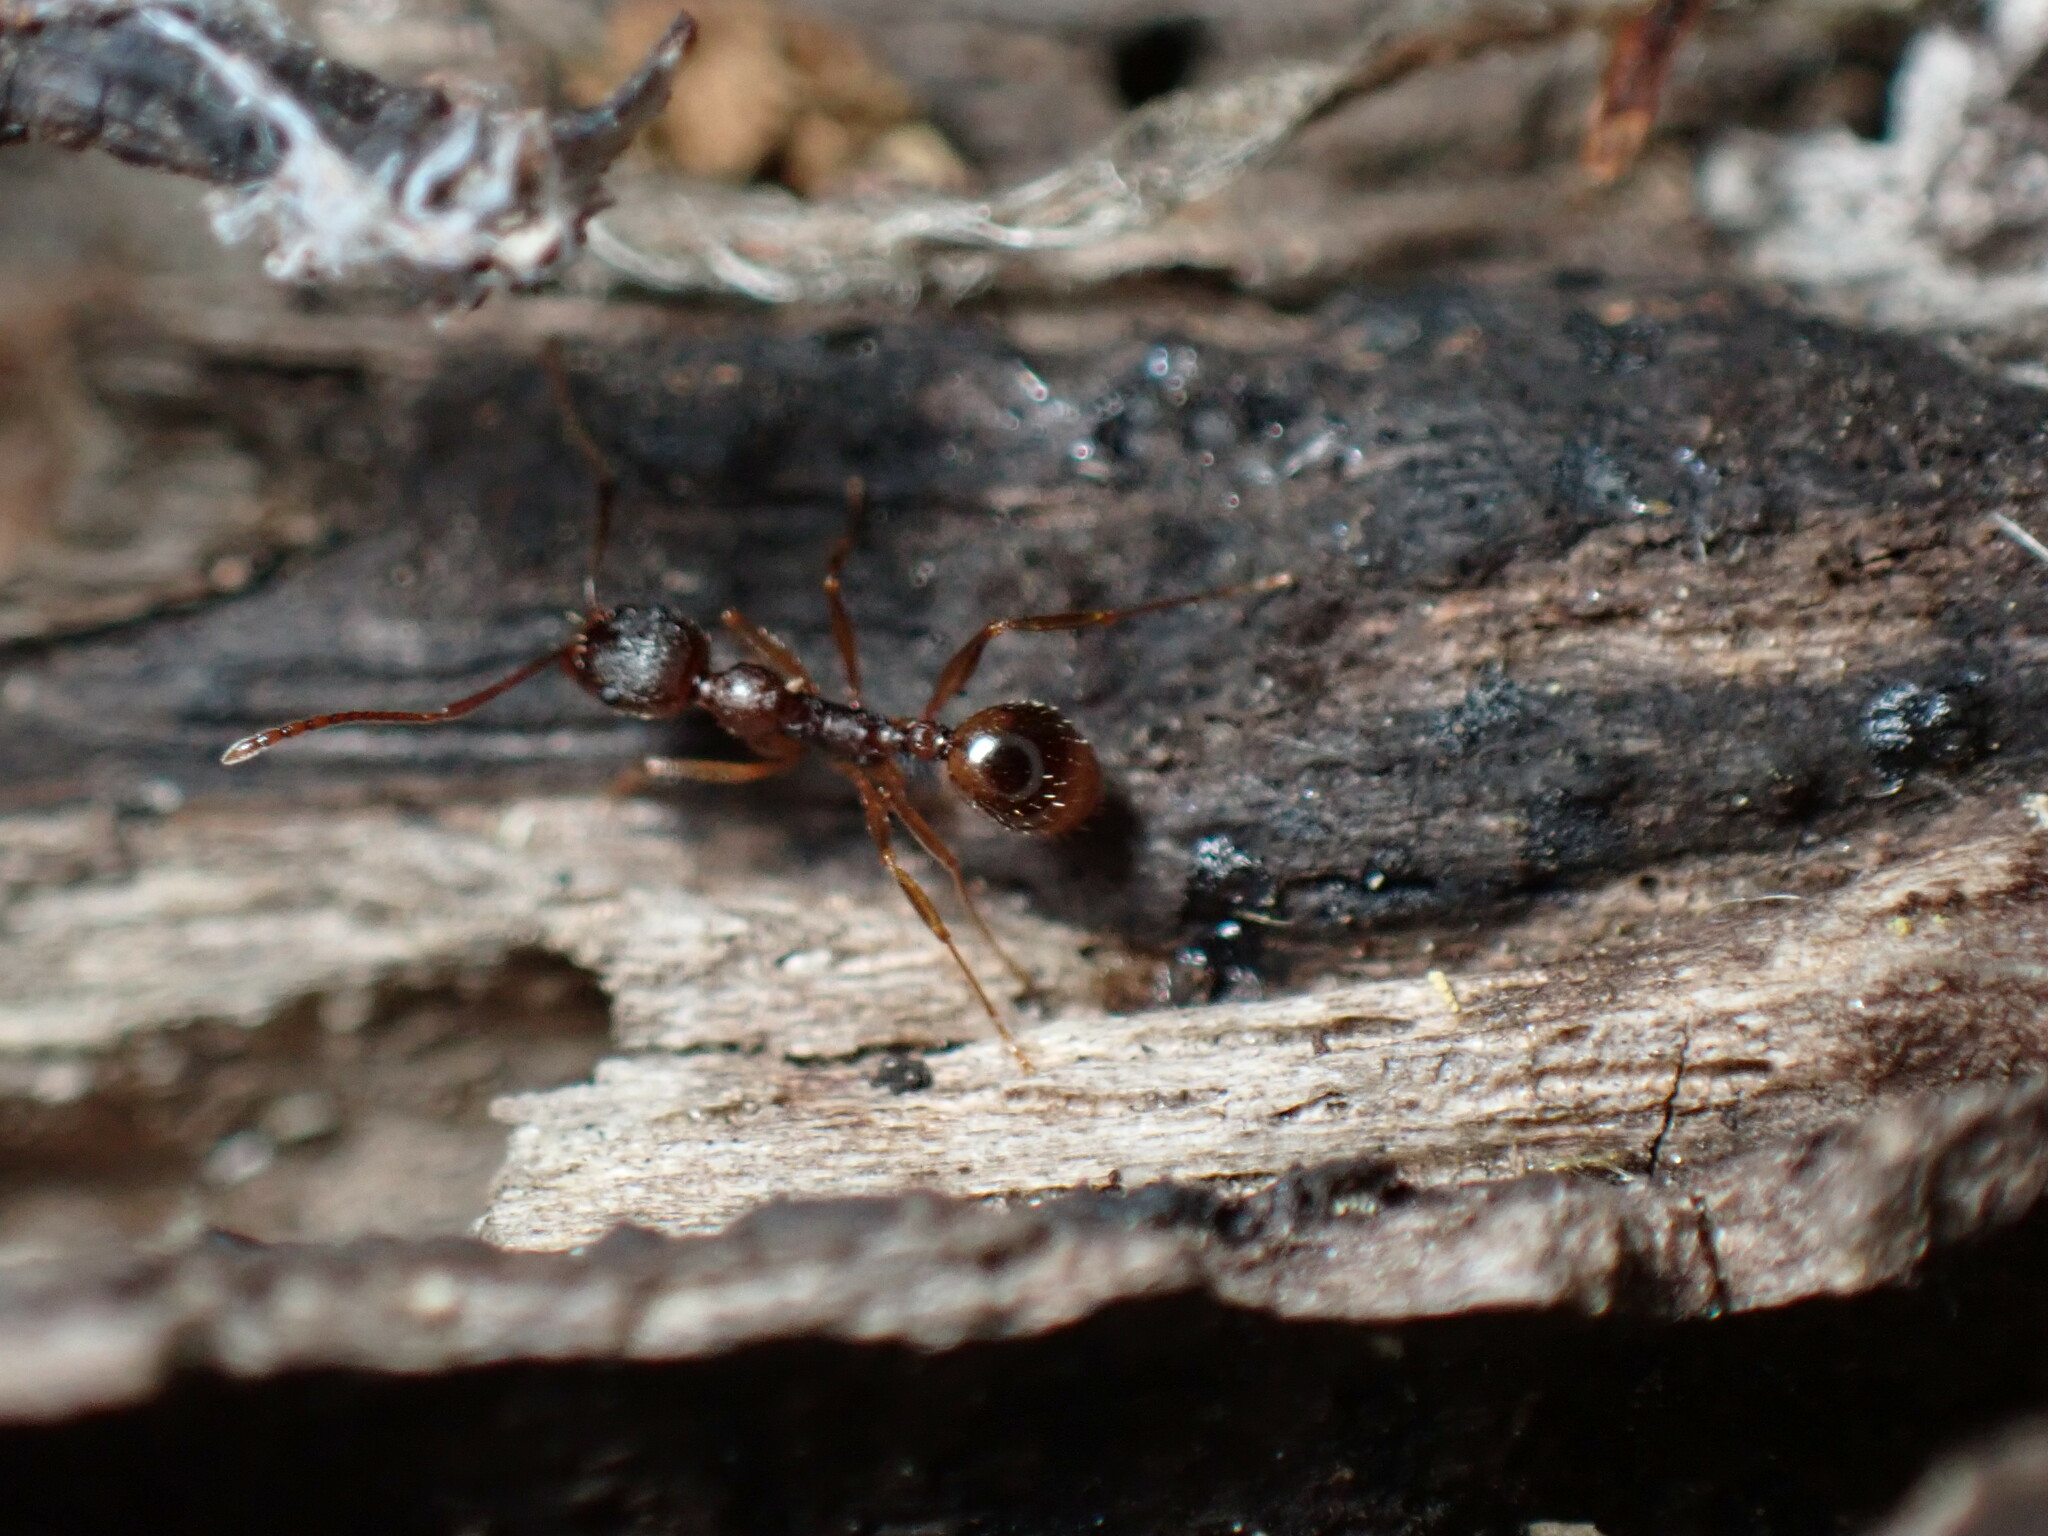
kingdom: Animalia
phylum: Arthropoda
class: Insecta
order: Hymenoptera
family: Formicidae
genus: Aphaenogaster
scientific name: Aphaenogaster rudis
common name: Winnow ant
